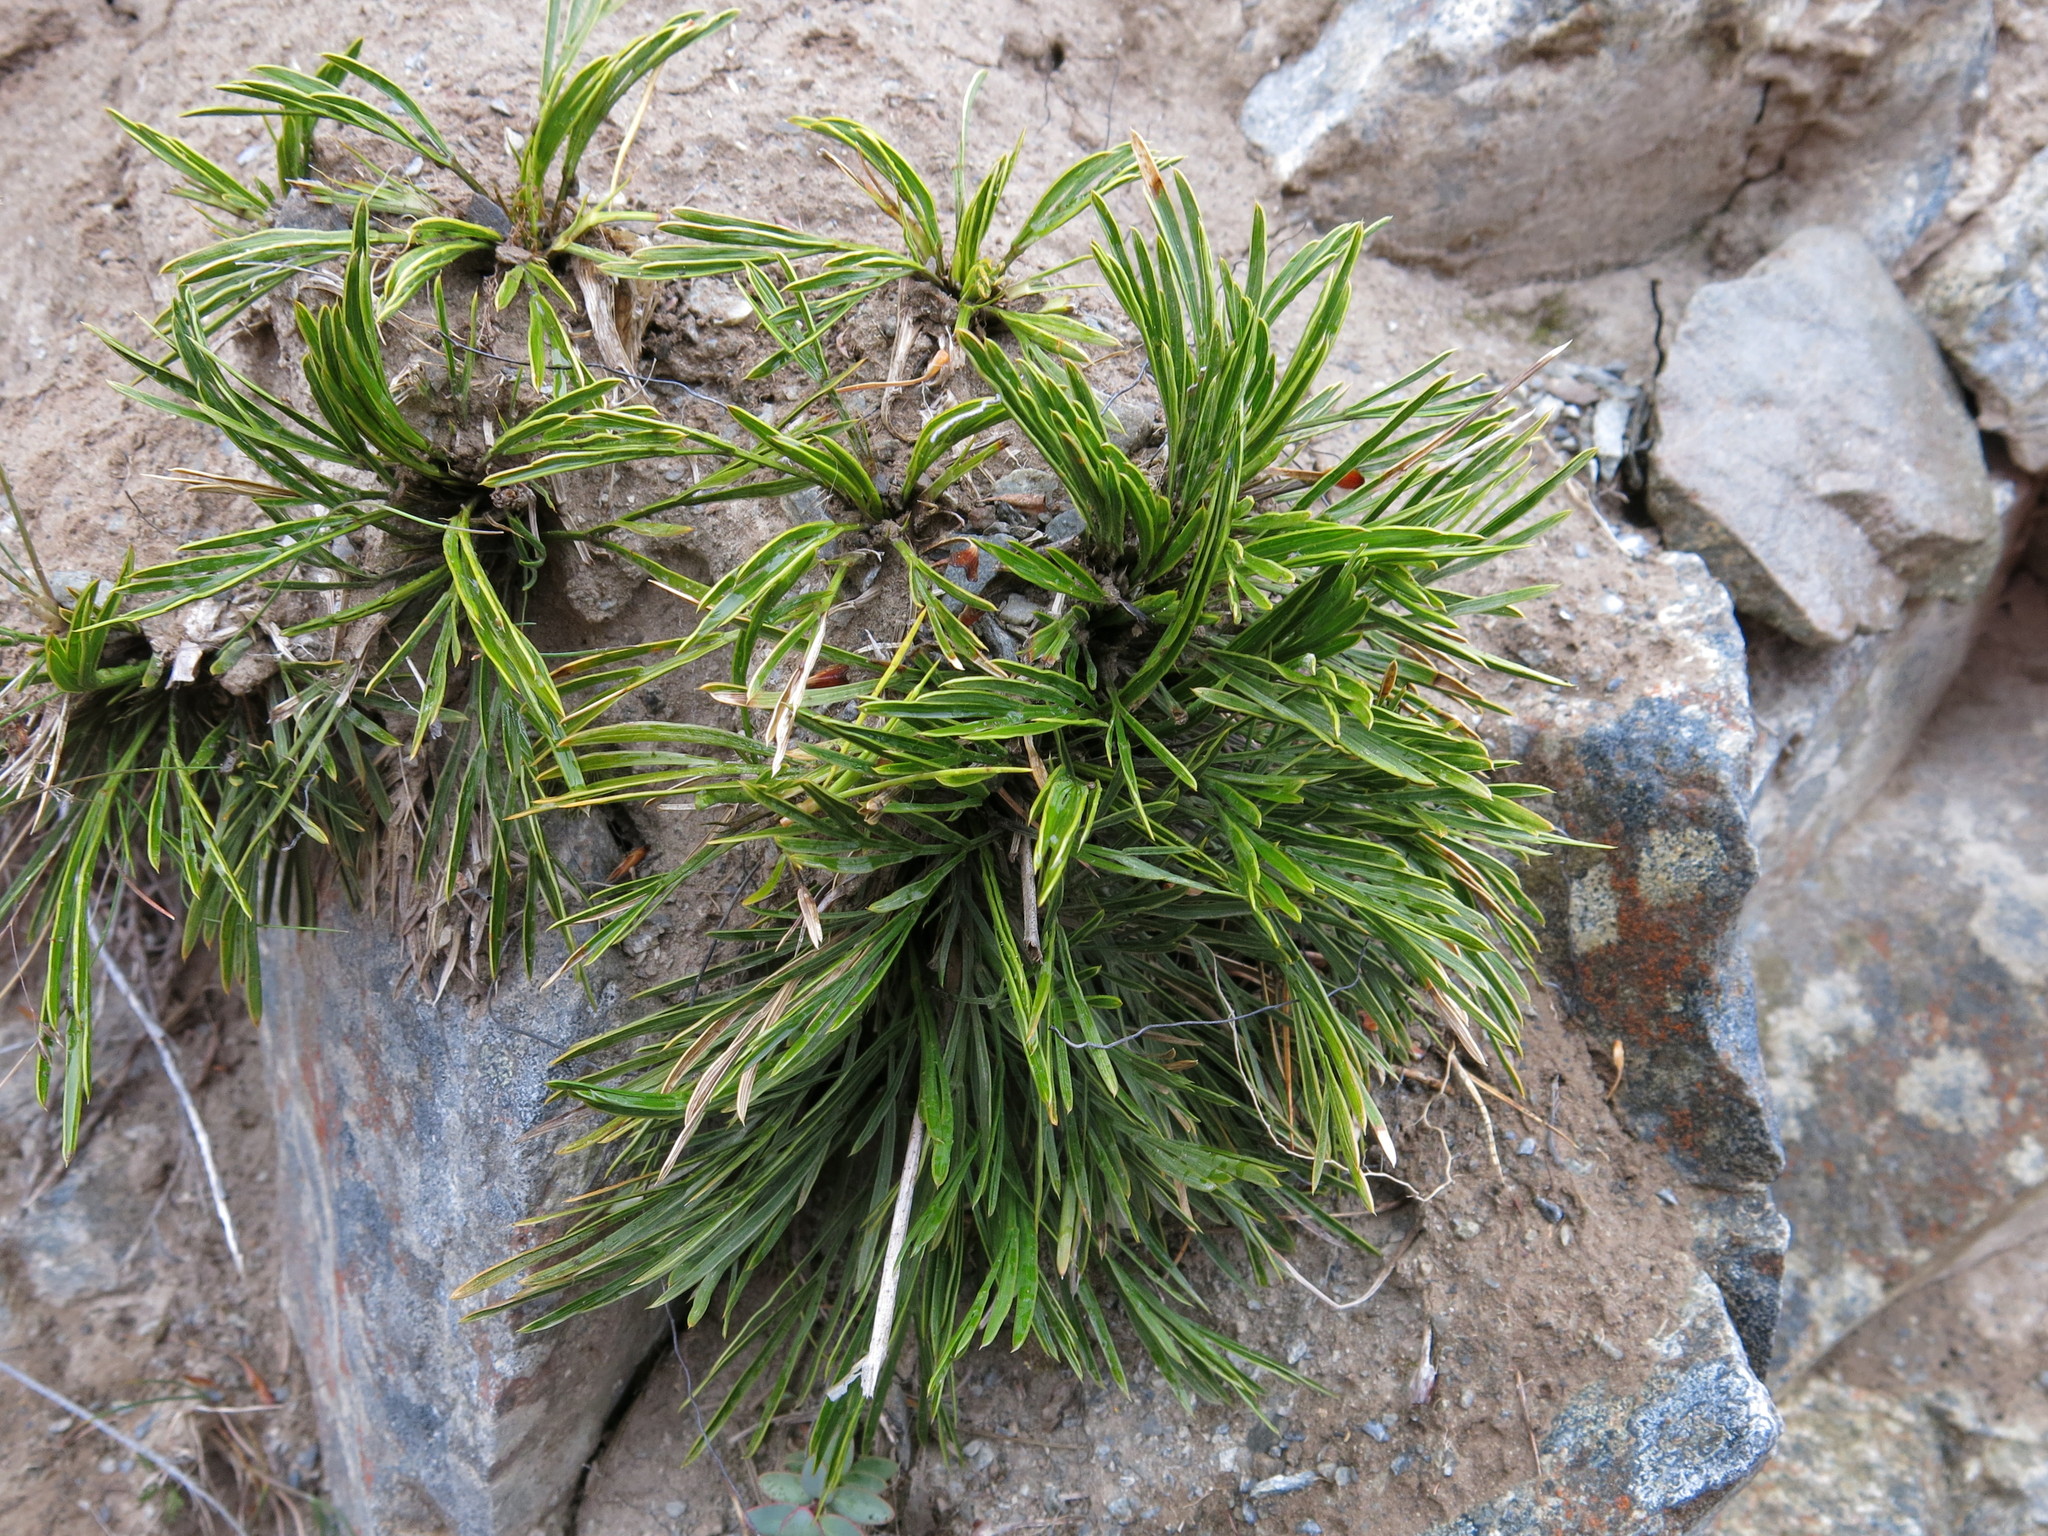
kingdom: Plantae
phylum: Tracheophyta
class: Magnoliopsida
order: Apiales
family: Apiaceae
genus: Aciphylla
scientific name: Aciphylla monroi
